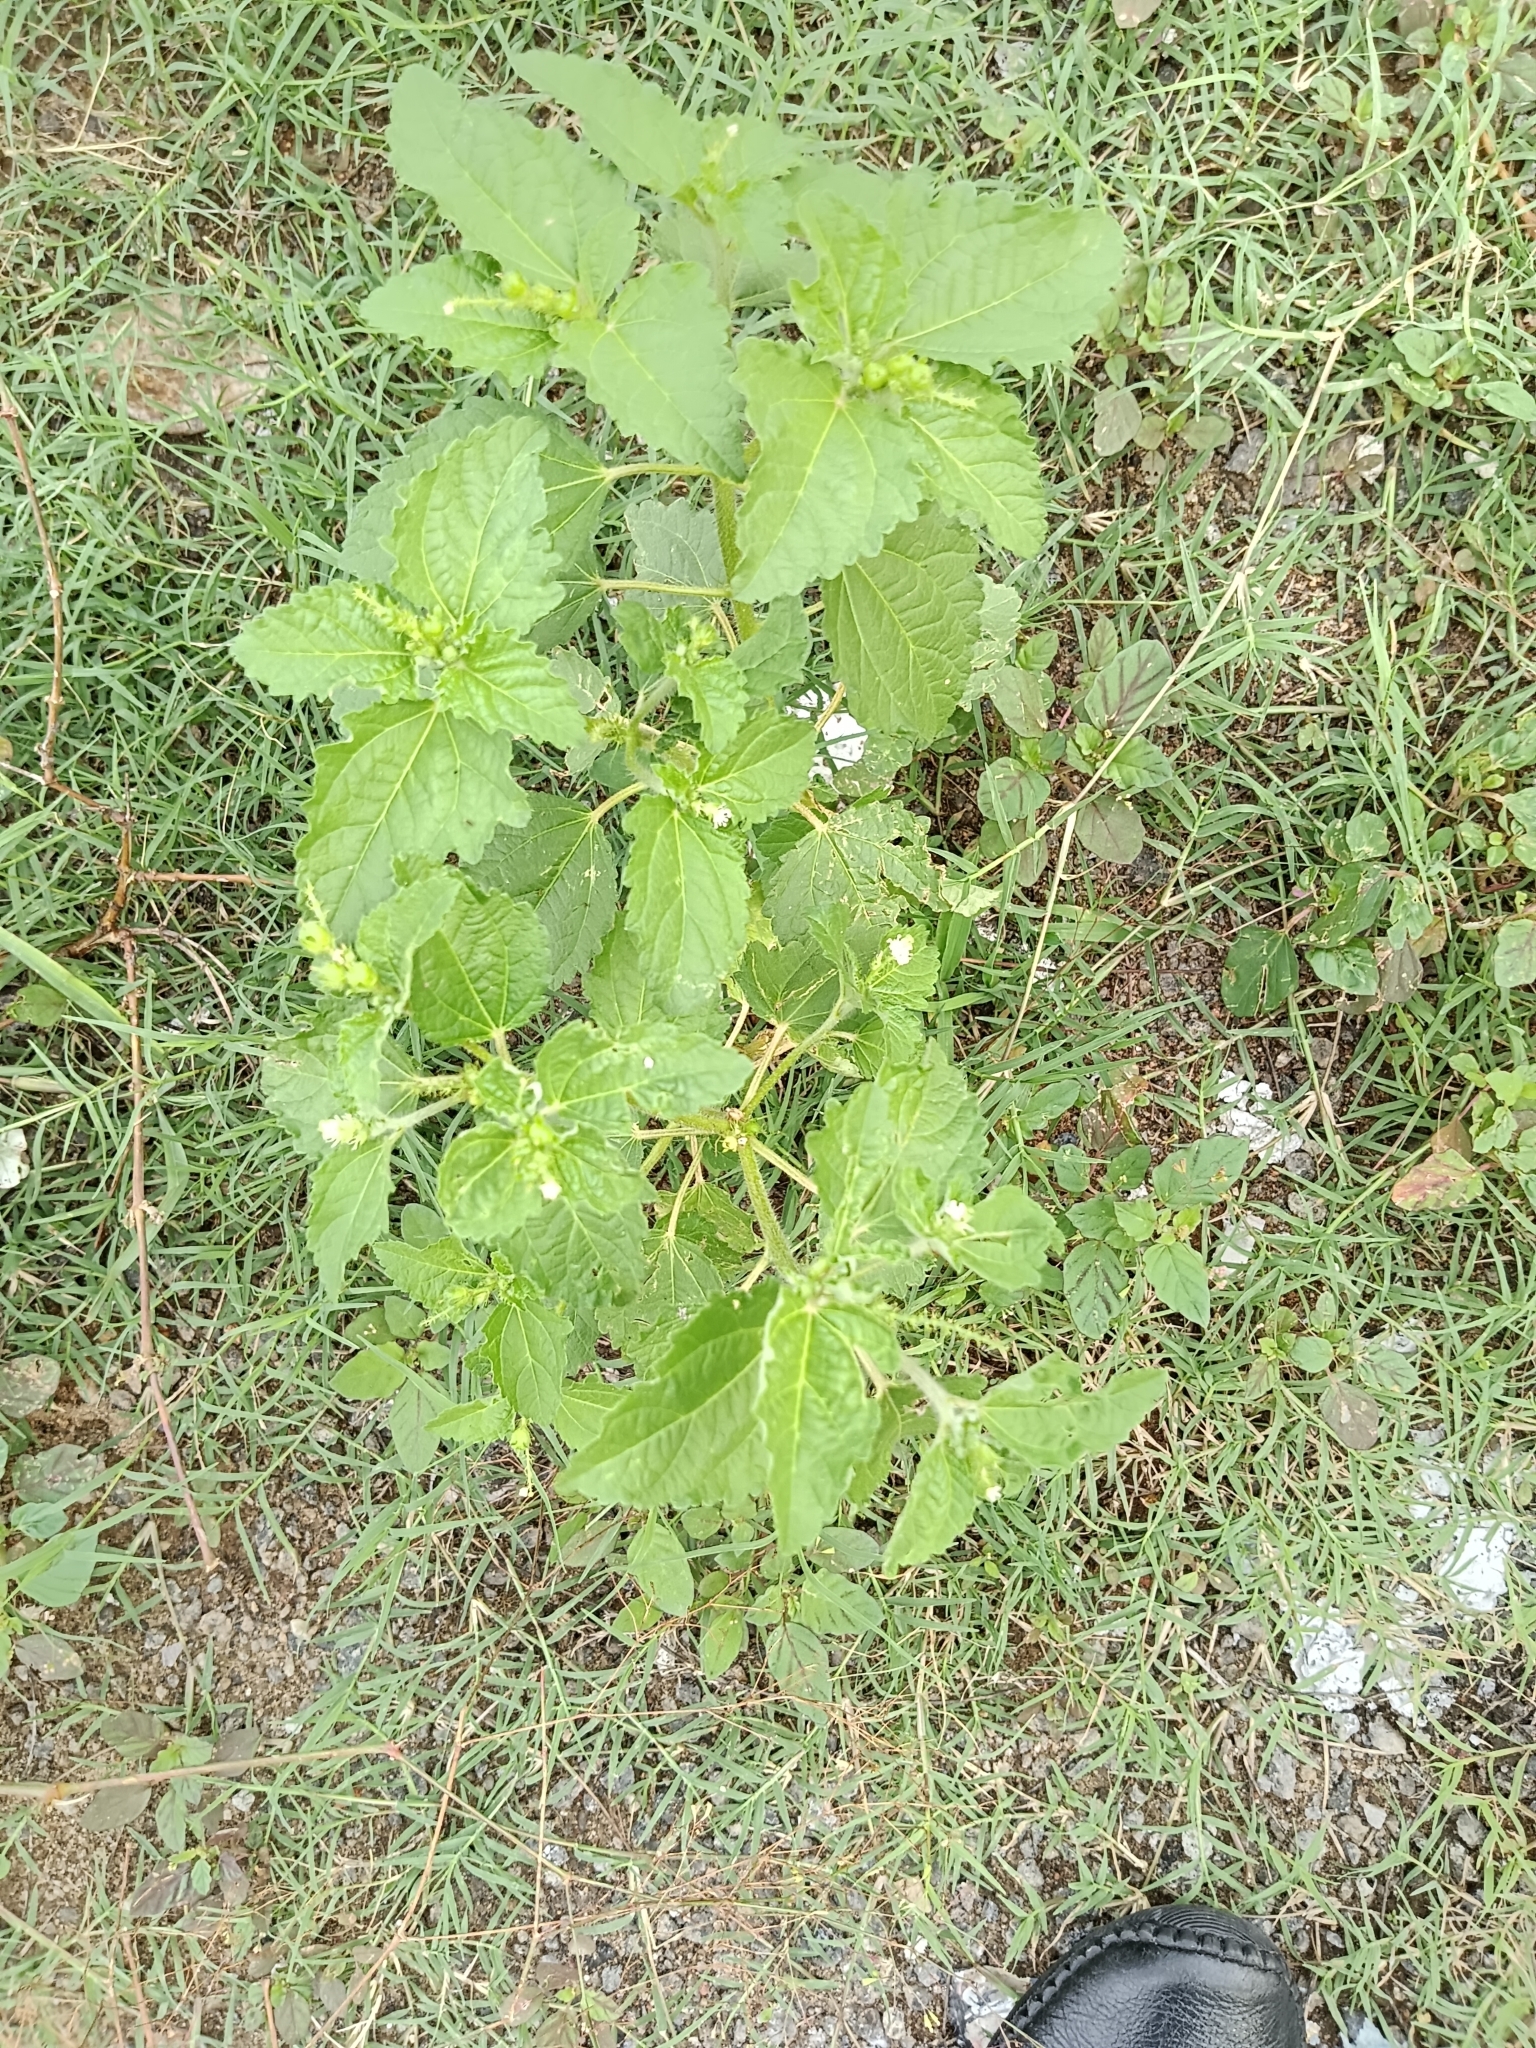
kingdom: Plantae
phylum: Tracheophyta
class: Magnoliopsida
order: Malpighiales
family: Euphorbiaceae
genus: Croton
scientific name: Croton hirtus
